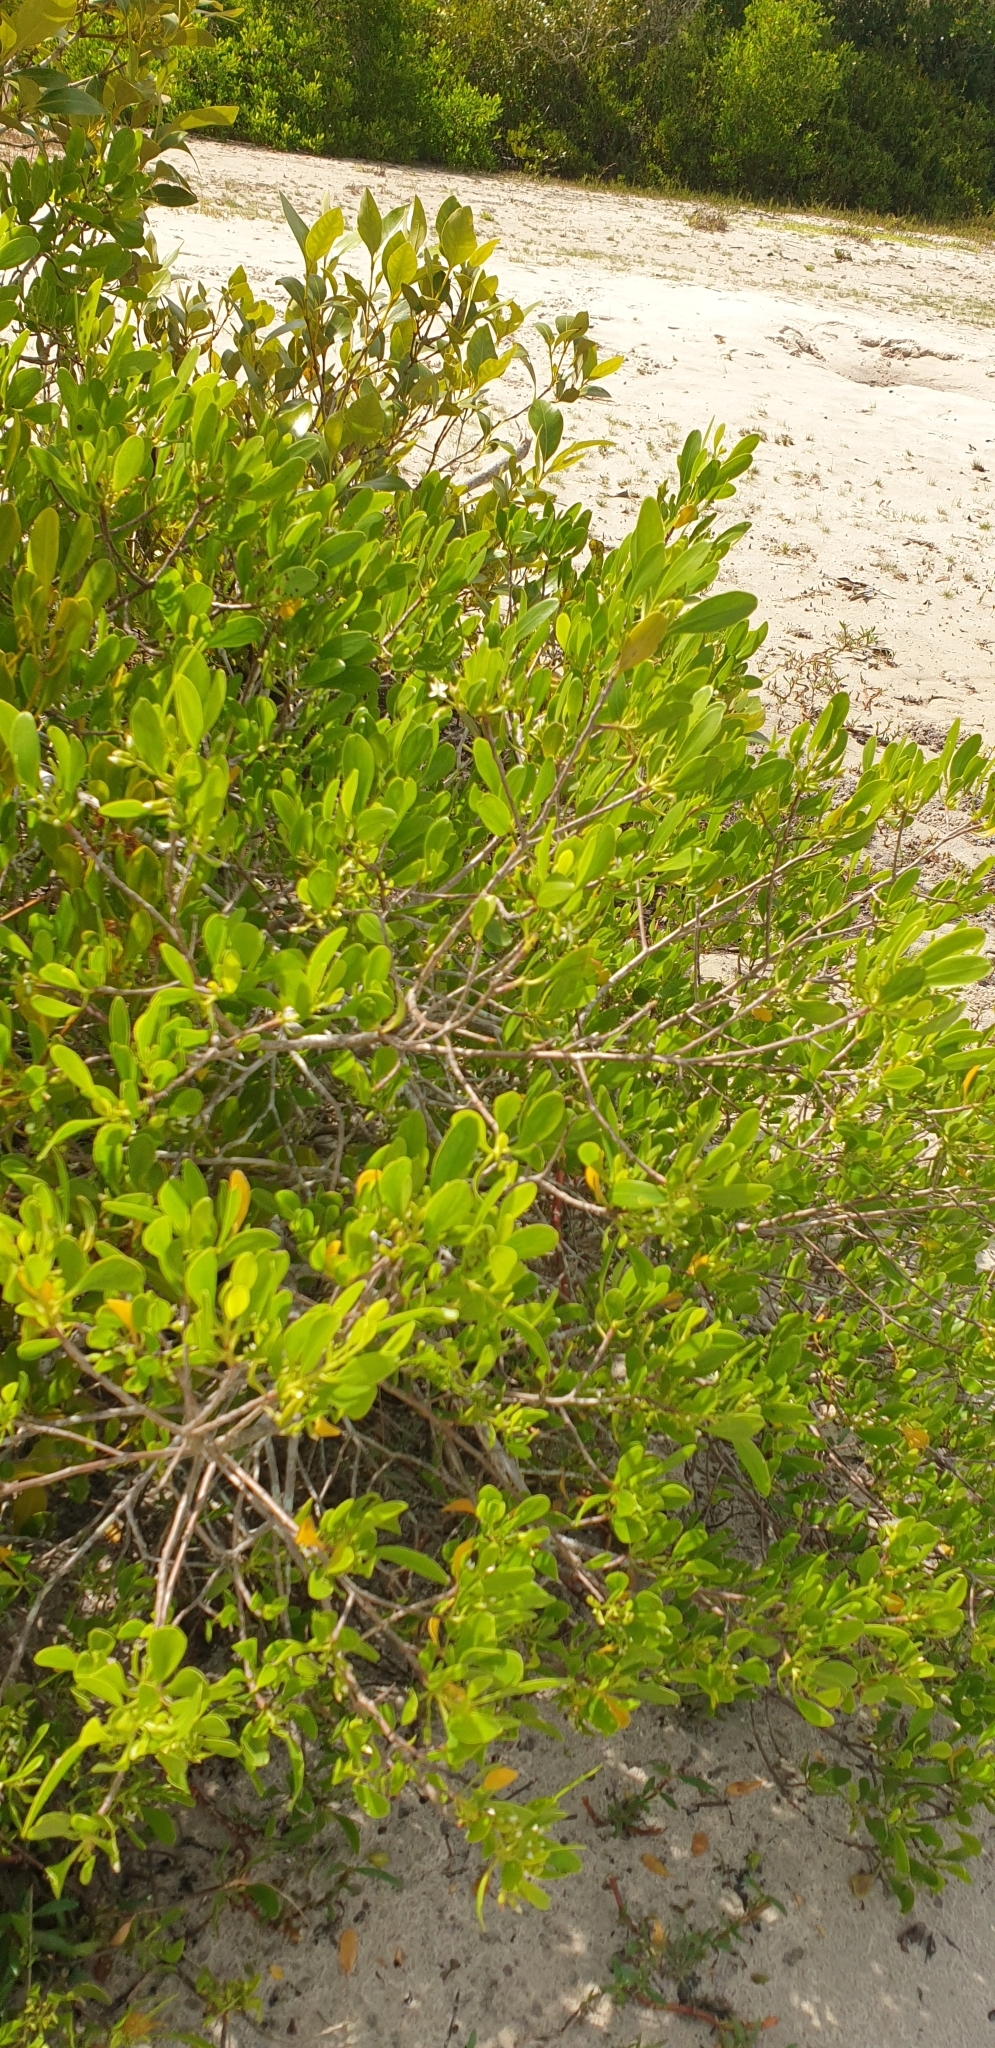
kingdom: Plantae
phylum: Tracheophyta
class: Magnoliopsida
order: Myrtales
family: Combretaceae
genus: Lumnitzera
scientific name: Lumnitzera racemosa
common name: White-flowered black mangrove
